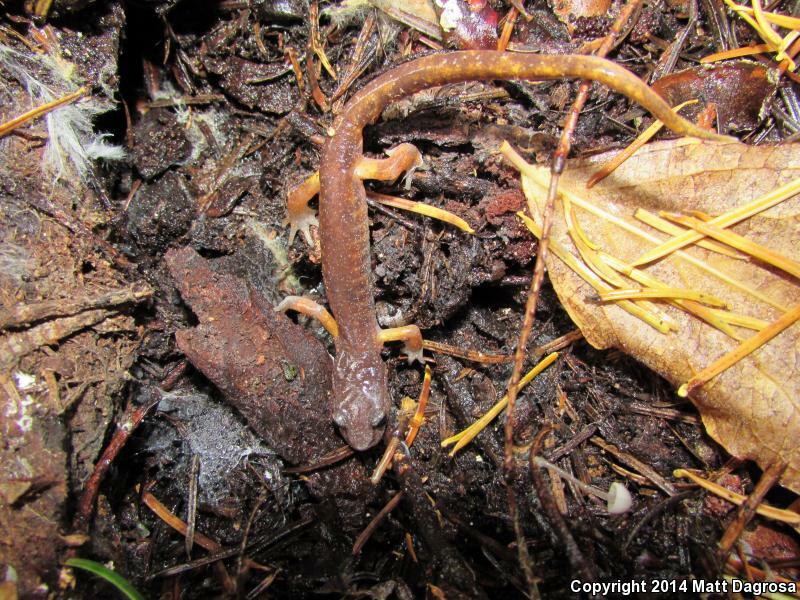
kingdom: Animalia
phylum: Chordata
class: Amphibia
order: Caudata
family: Plethodontidae
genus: Ensatina
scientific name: Ensatina eschscholtzii
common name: Ensatina
